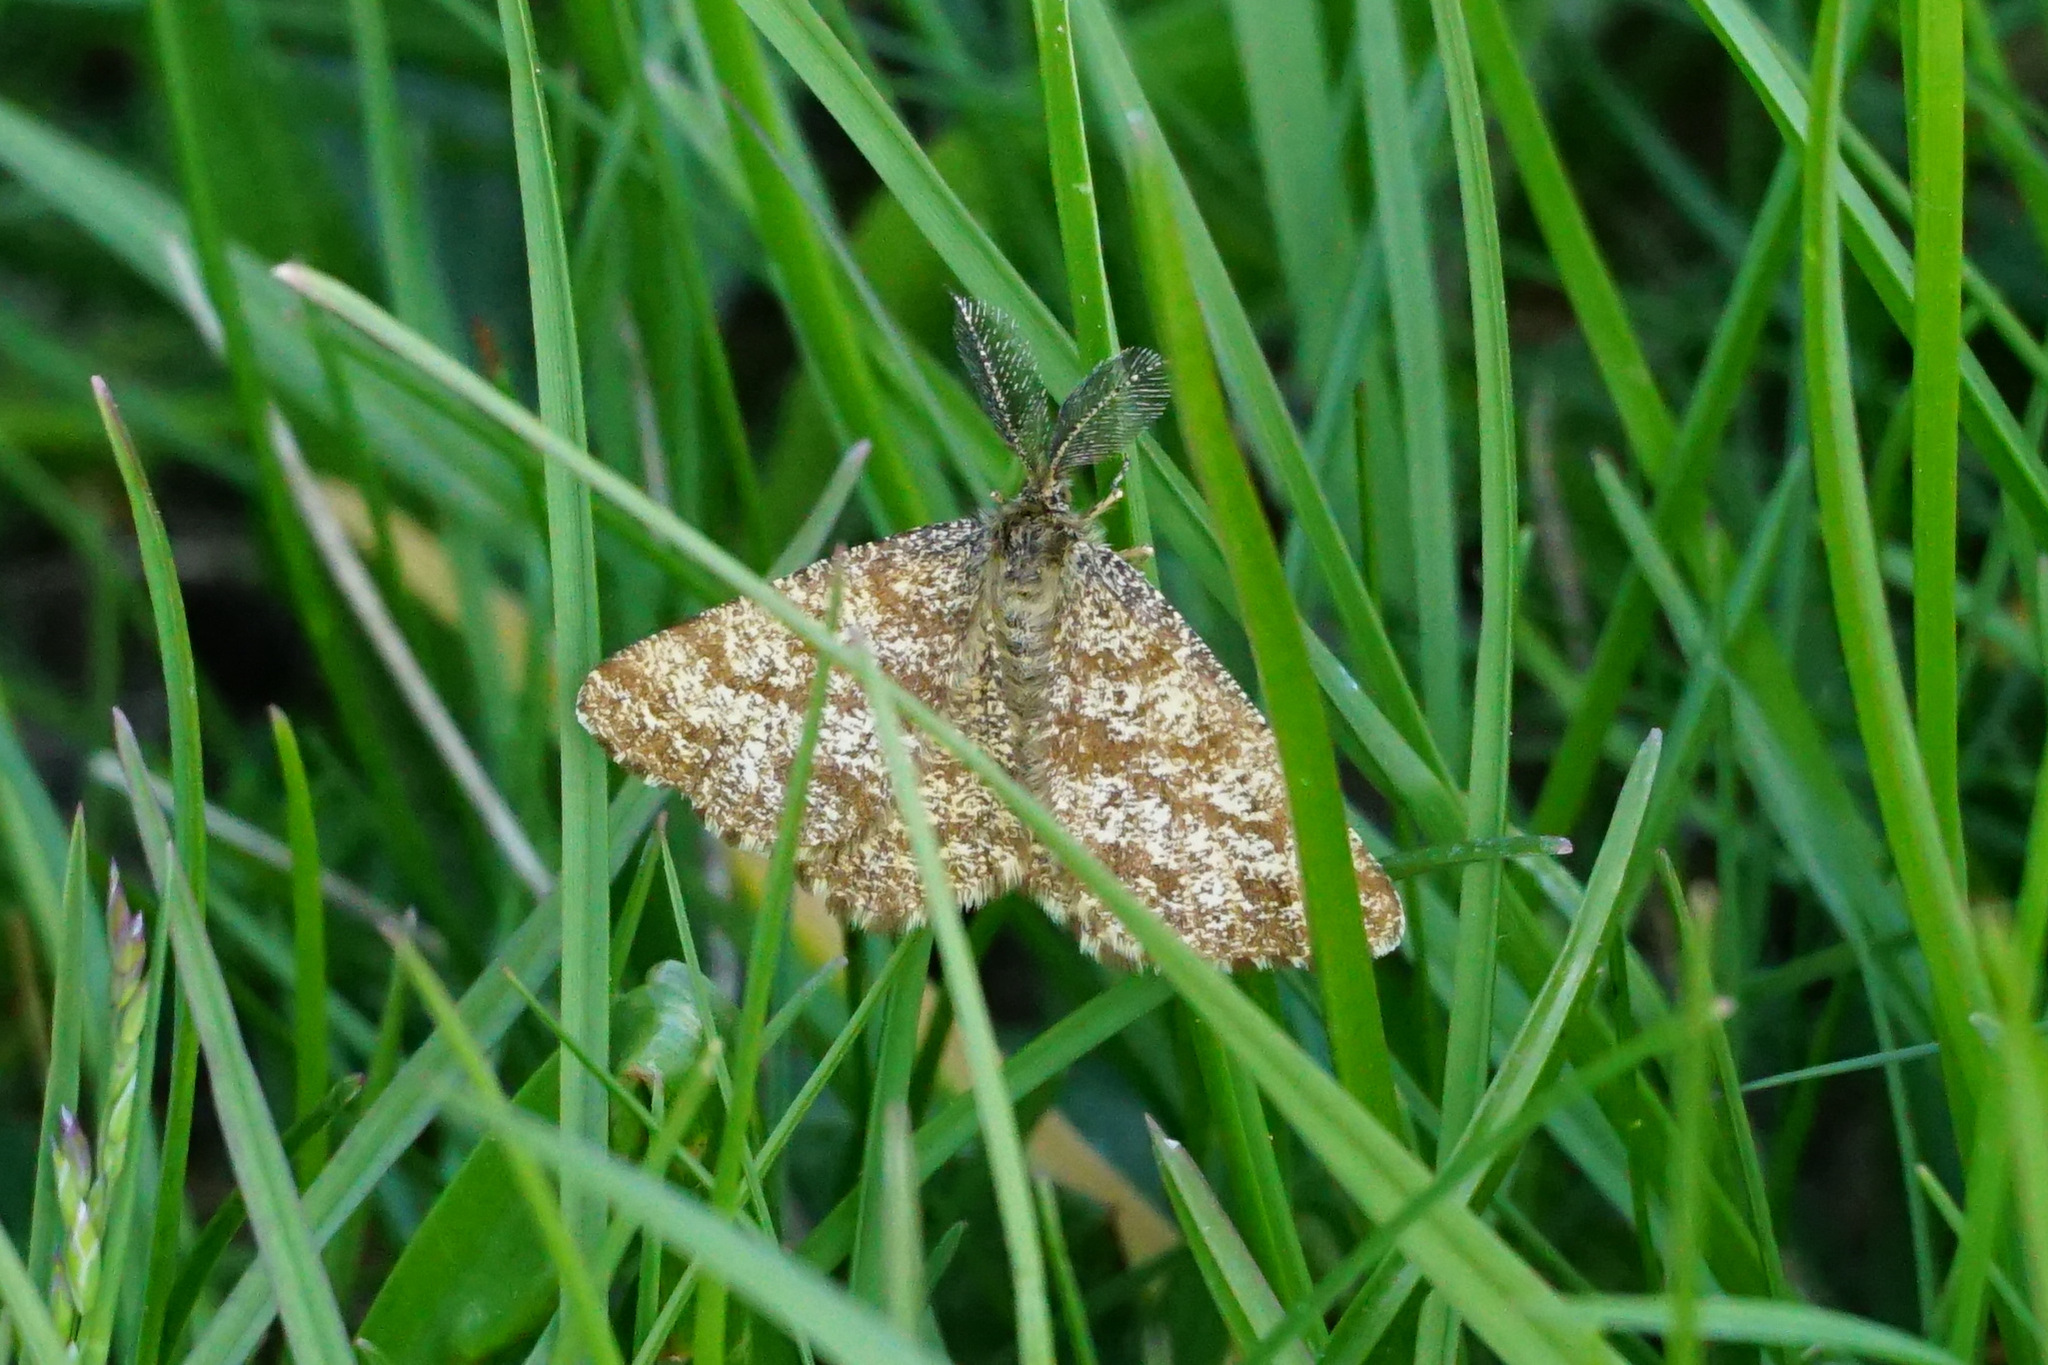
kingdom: Animalia
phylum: Arthropoda
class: Insecta
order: Lepidoptera
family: Geometridae
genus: Ematurga
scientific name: Ematurga atomaria
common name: Common heath
